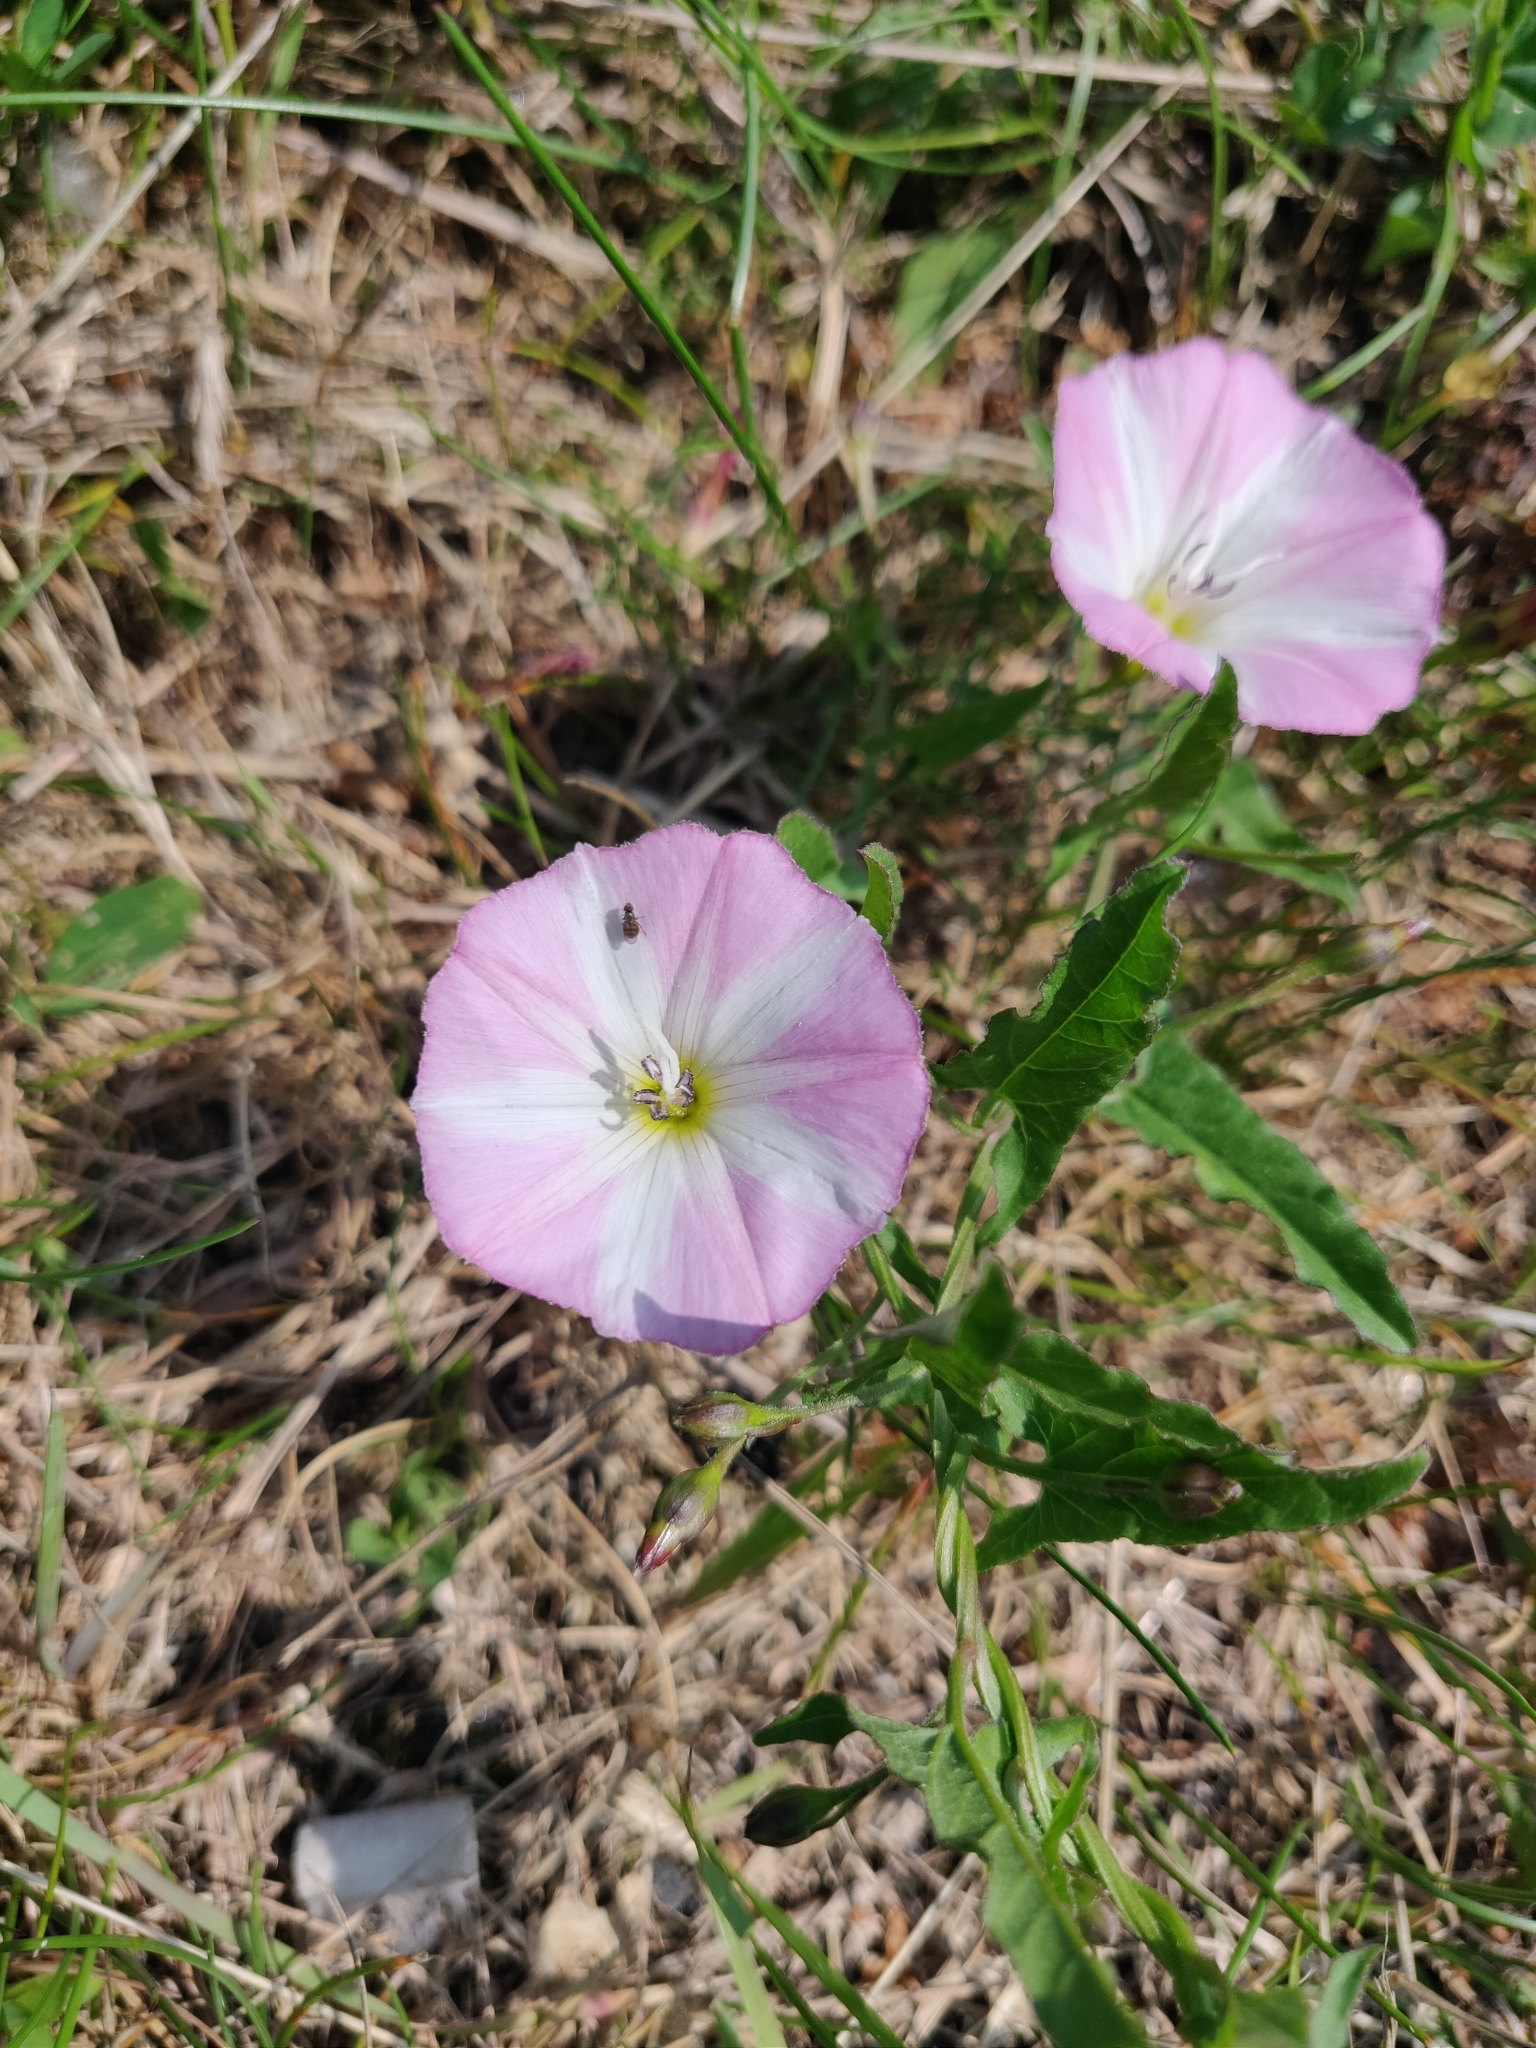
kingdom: Plantae
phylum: Tracheophyta
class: Magnoliopsida
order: Solanales
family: Convolvulaceae
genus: Convolvulus
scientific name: Convolvulus arvensis
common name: Field bindweed
